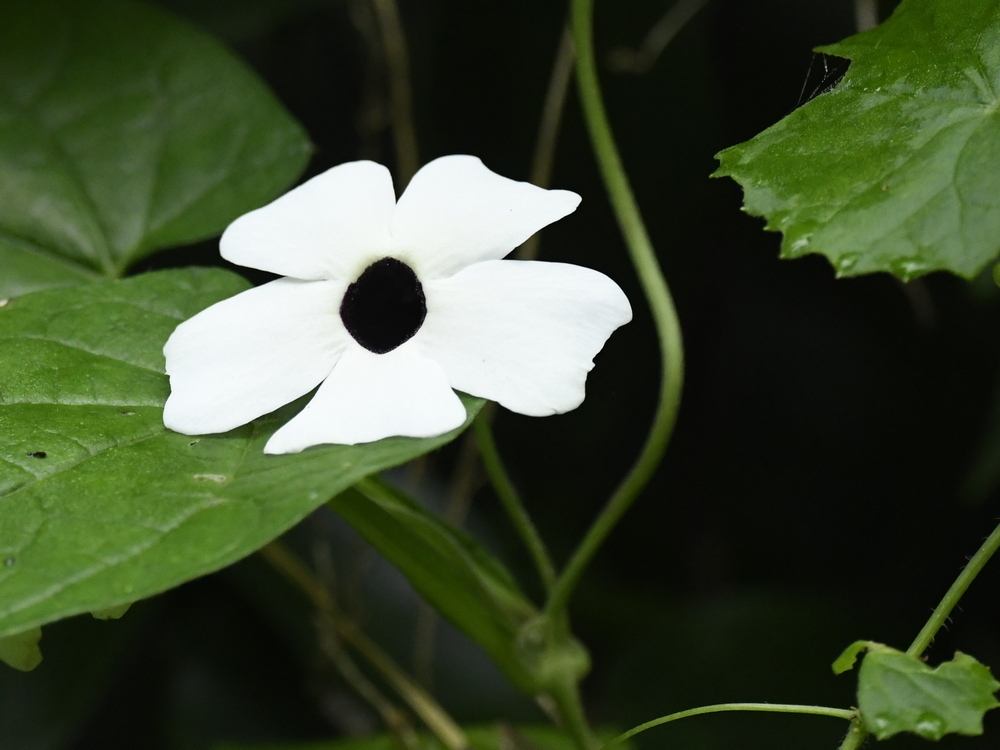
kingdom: Plantae
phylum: Tracheophyta
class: Magnoliopsida
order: Lamiales
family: Acanthaceae
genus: Thunbergia
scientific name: Thunbergia alata
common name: Blackeyed susan vine
